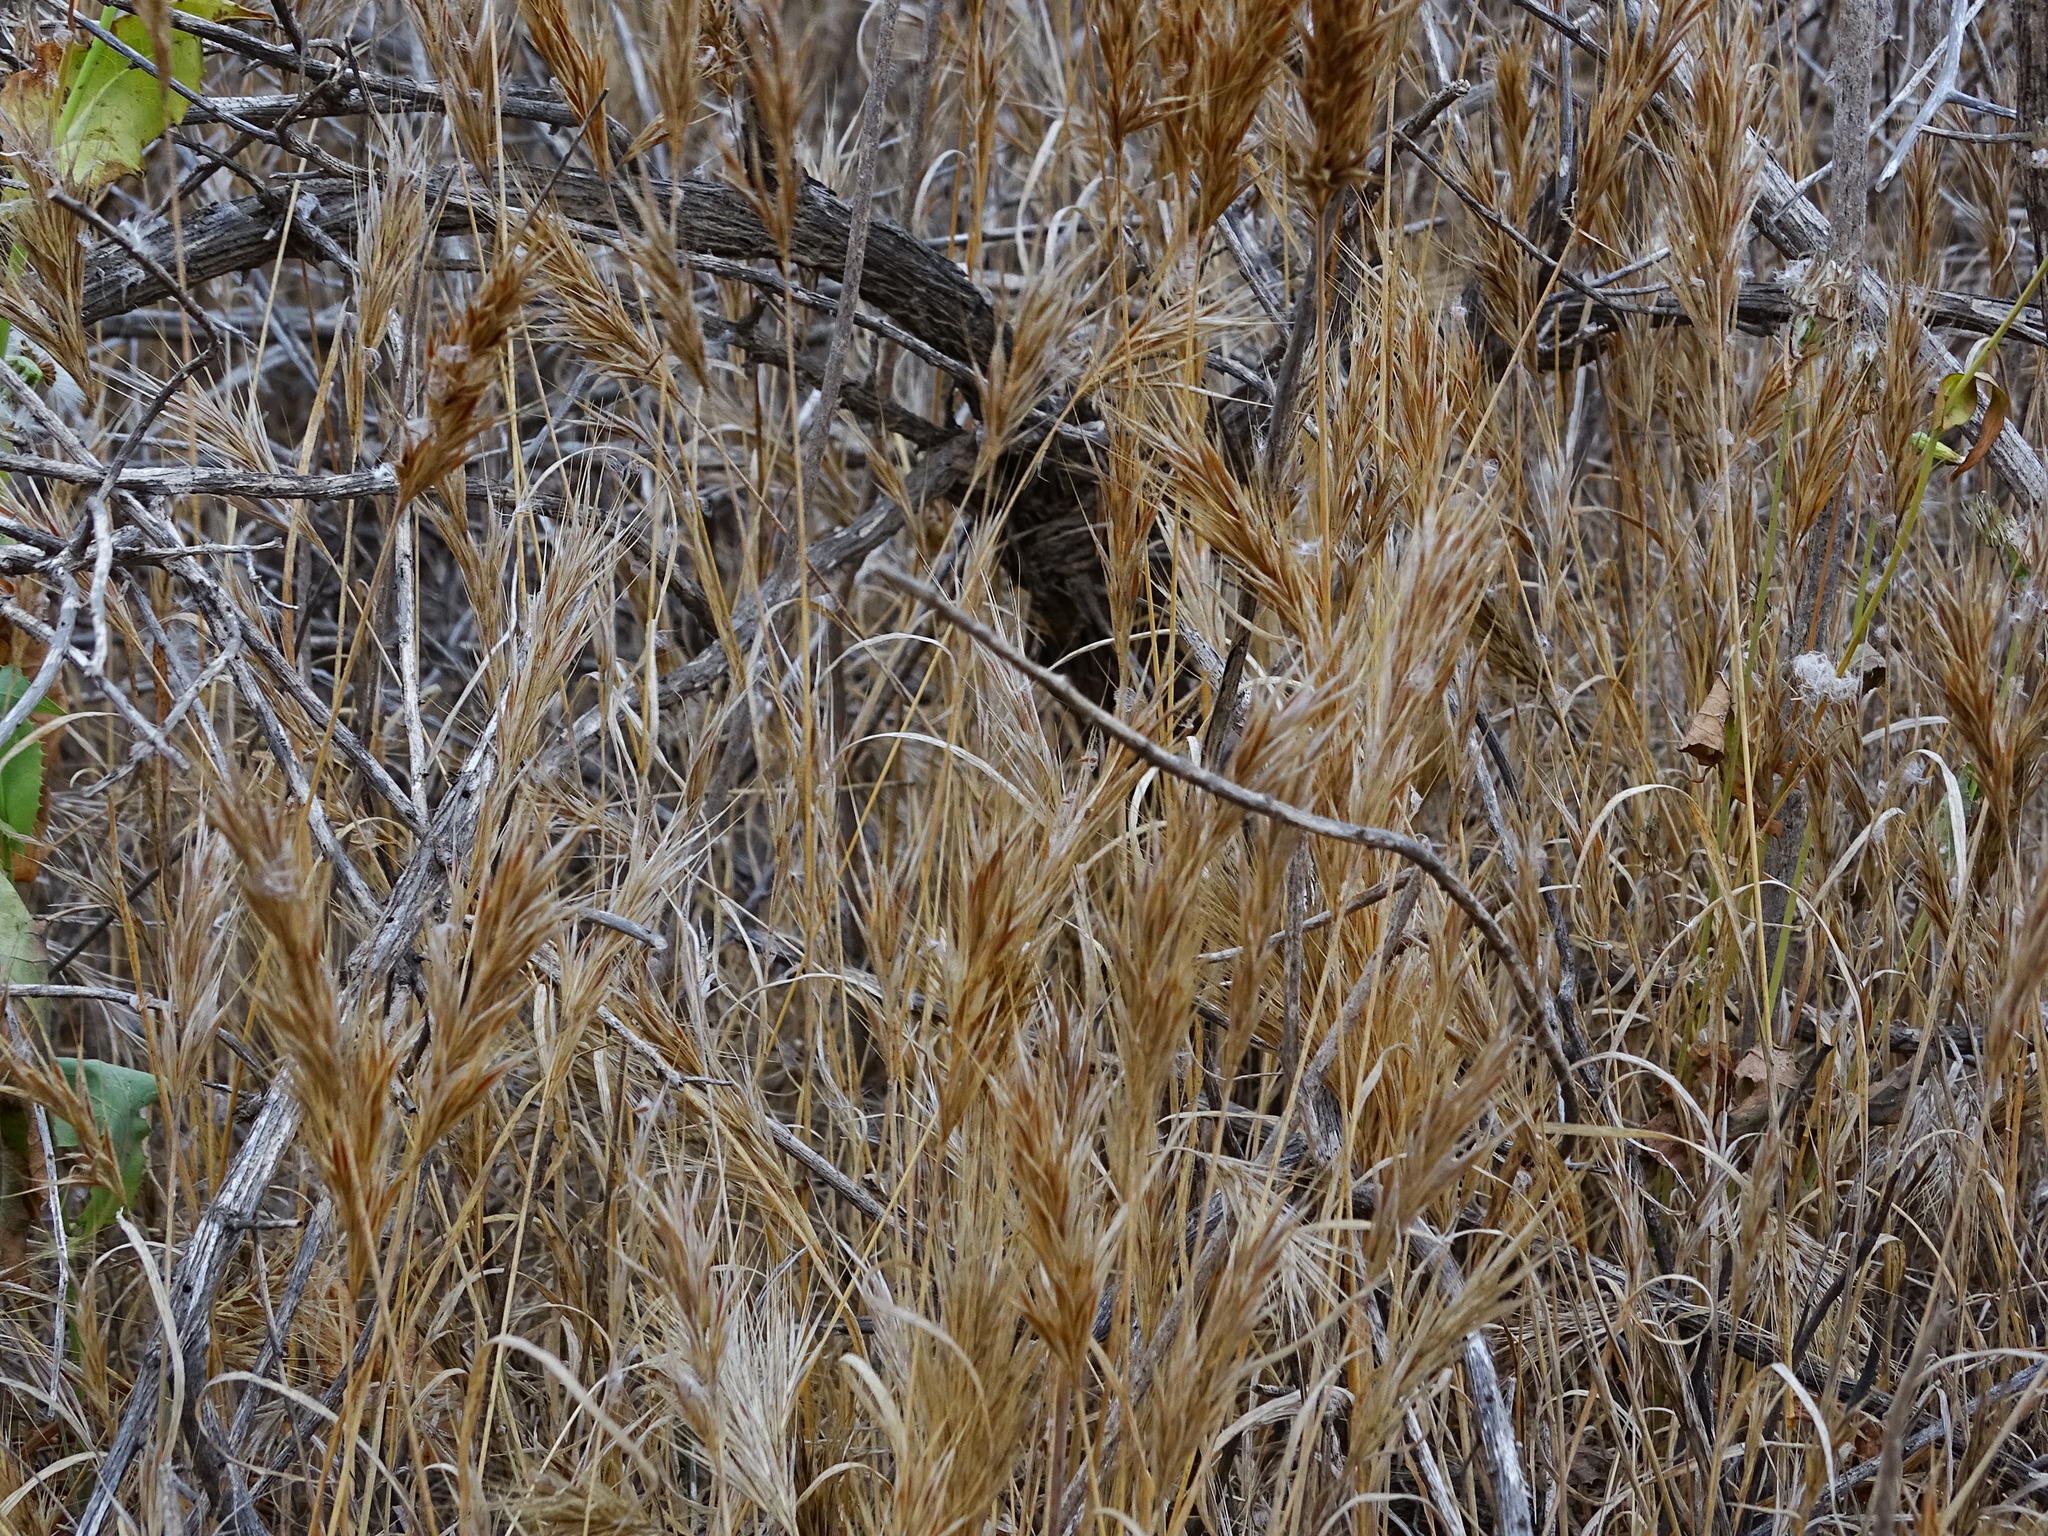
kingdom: Plantae
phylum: Tracheophyta
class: Liliopsida
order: Poales
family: Poaceae
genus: Bromus
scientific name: Bromus madritensis
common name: Compact brome
